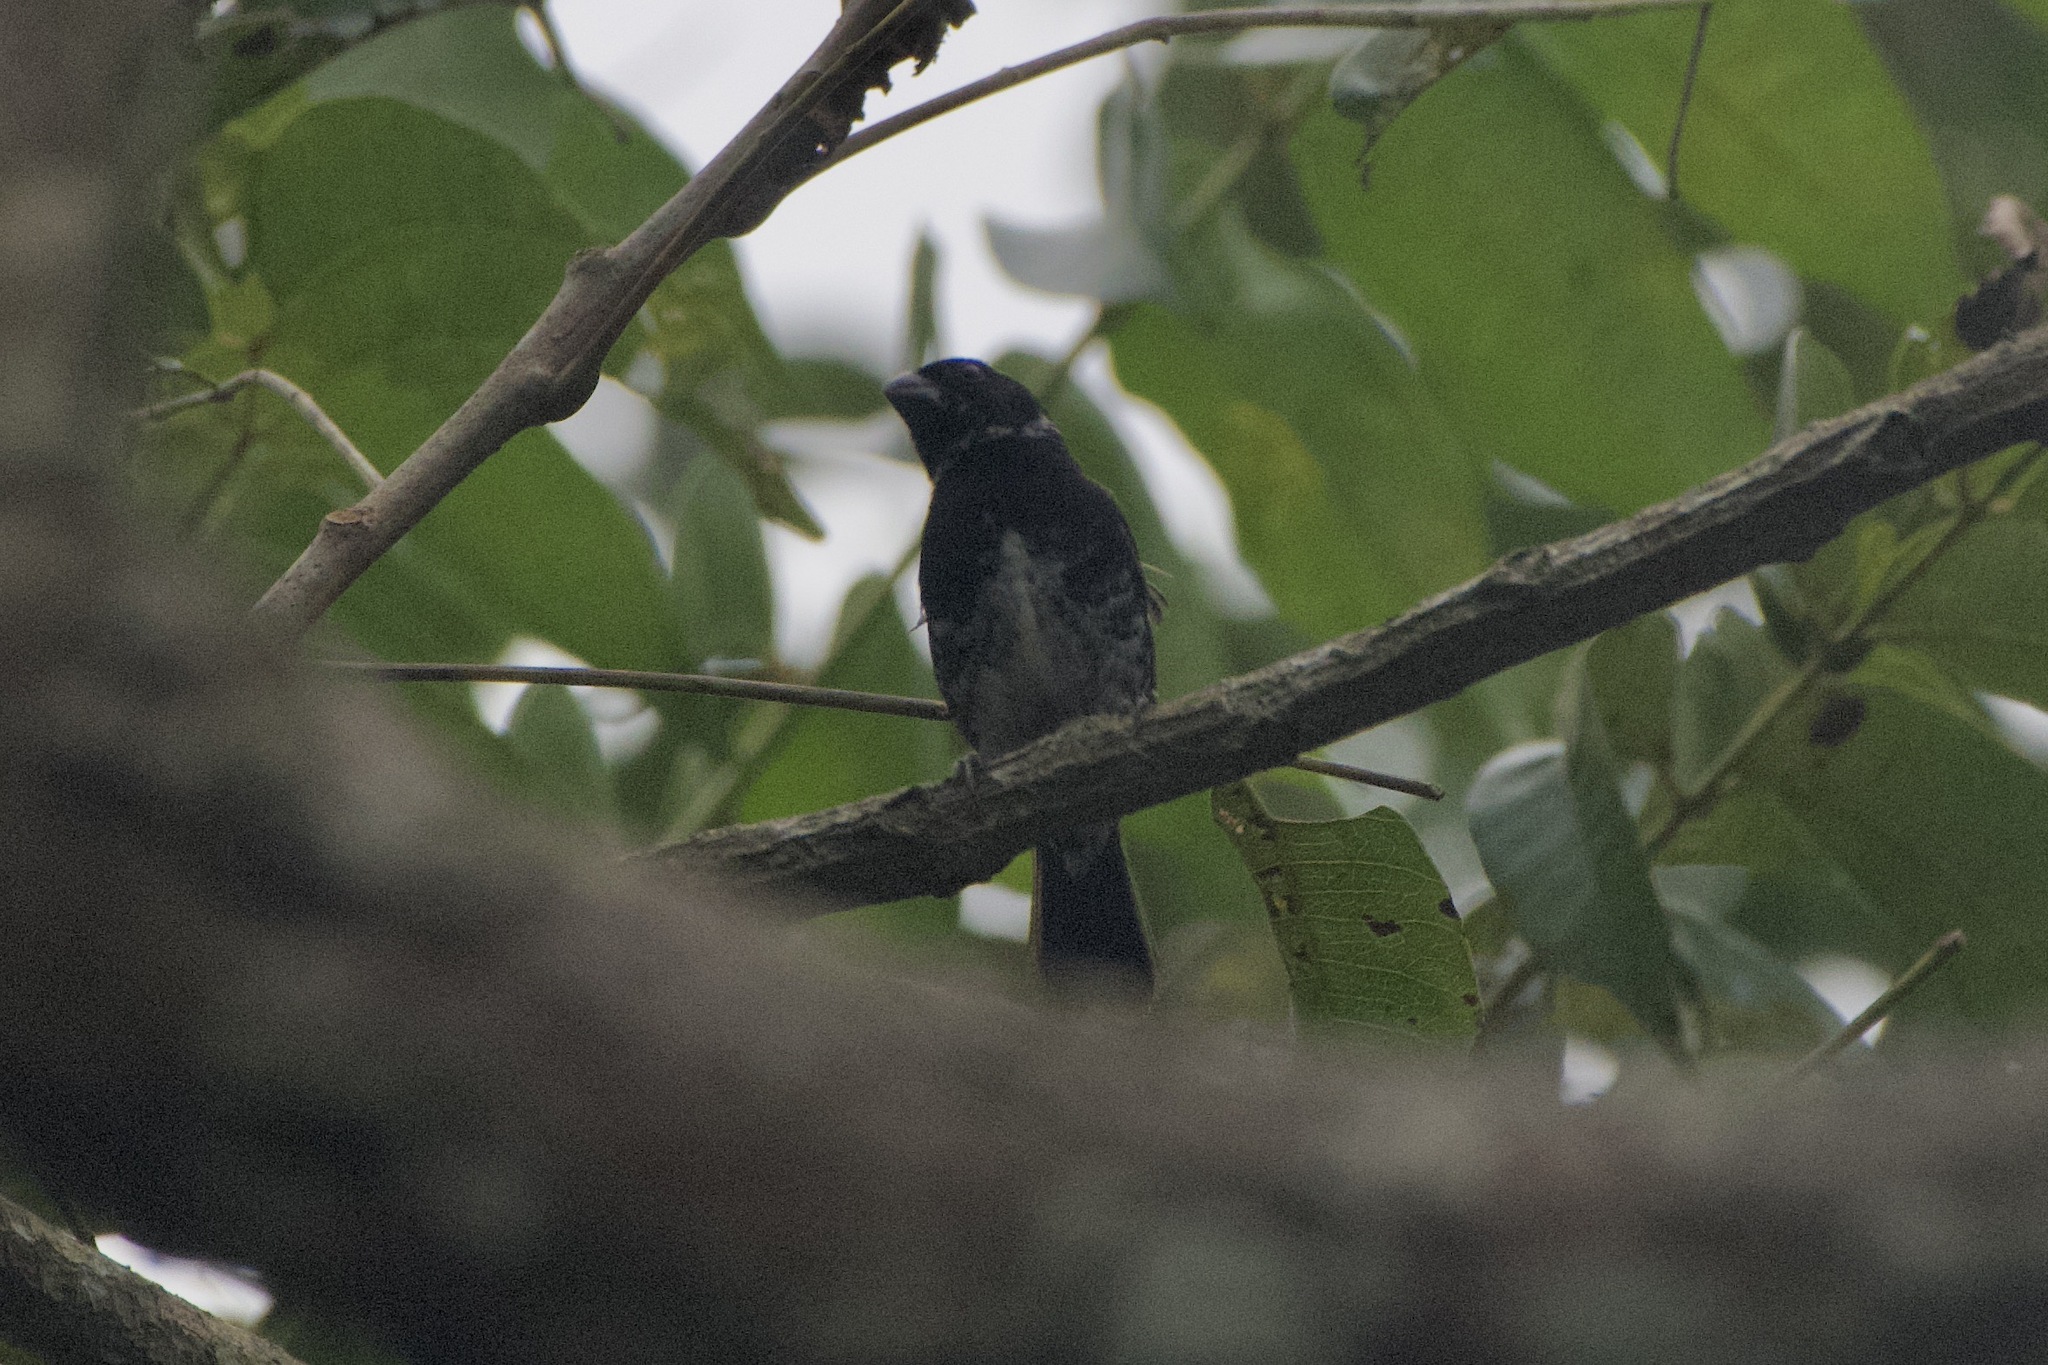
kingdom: Animalia
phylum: Chordata
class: Aves
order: Passeriformes
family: Thraupidae
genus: Sporophila
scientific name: Sporophila corvina
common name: Variable seedeater
